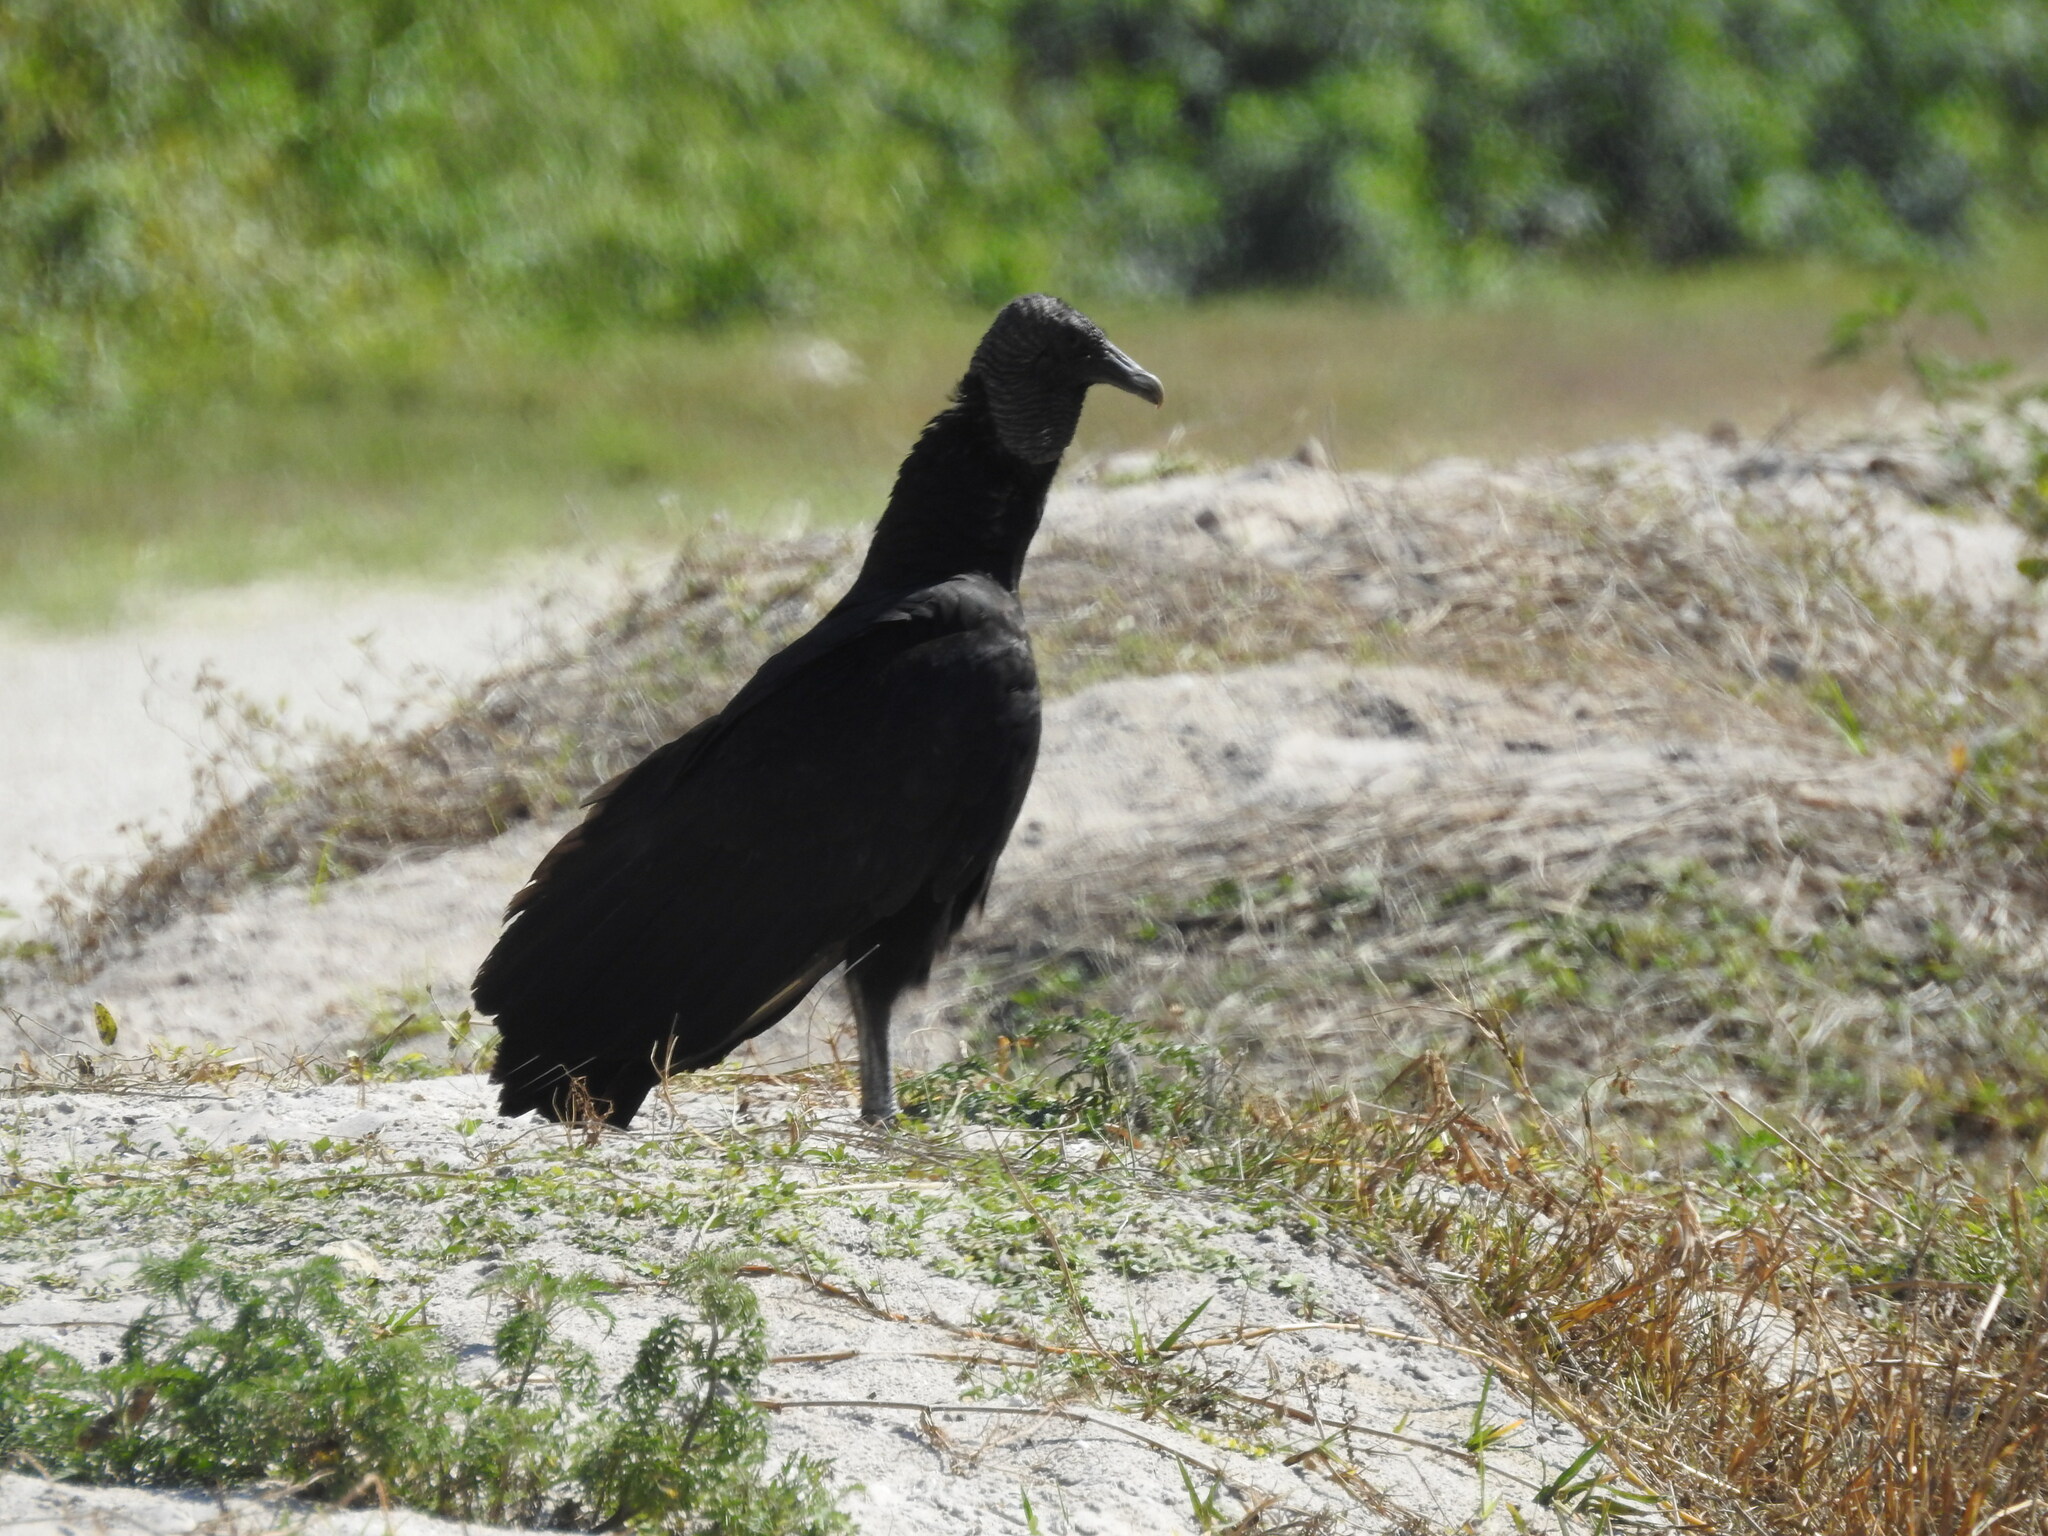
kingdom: Animalia
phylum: Chordata
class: Aves
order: Accipitriformes
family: Cathartidae
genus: Coragyps
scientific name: Coragyps atratus
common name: Black vulture
